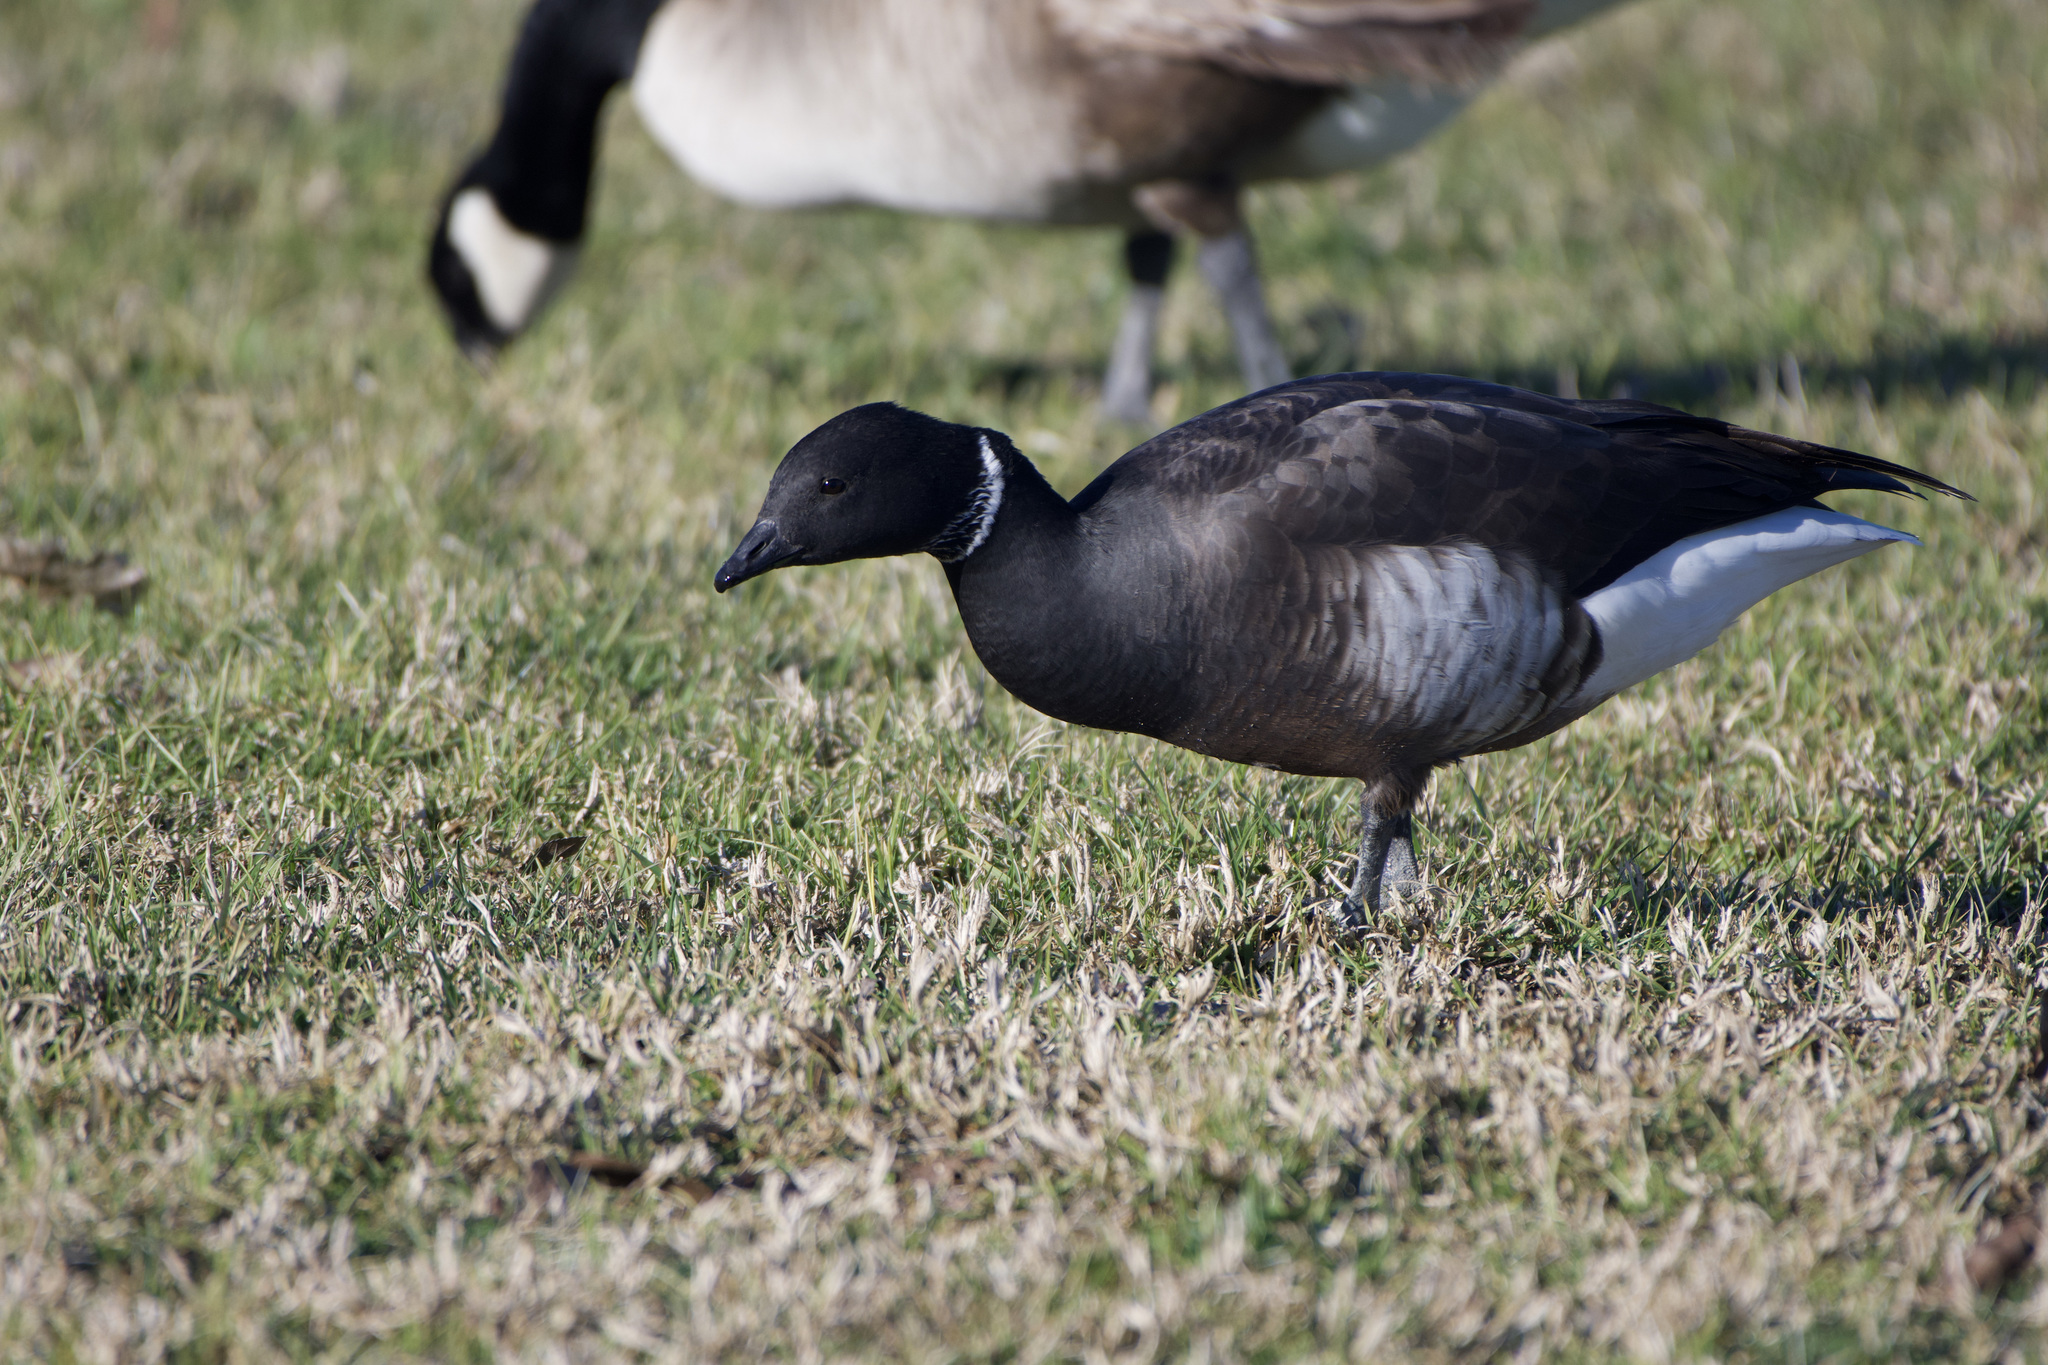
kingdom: Animalia
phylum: Chordata
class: Aves
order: Anseriformes
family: Anatidae
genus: Branta
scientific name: Branta bernicla
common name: Brant goose
